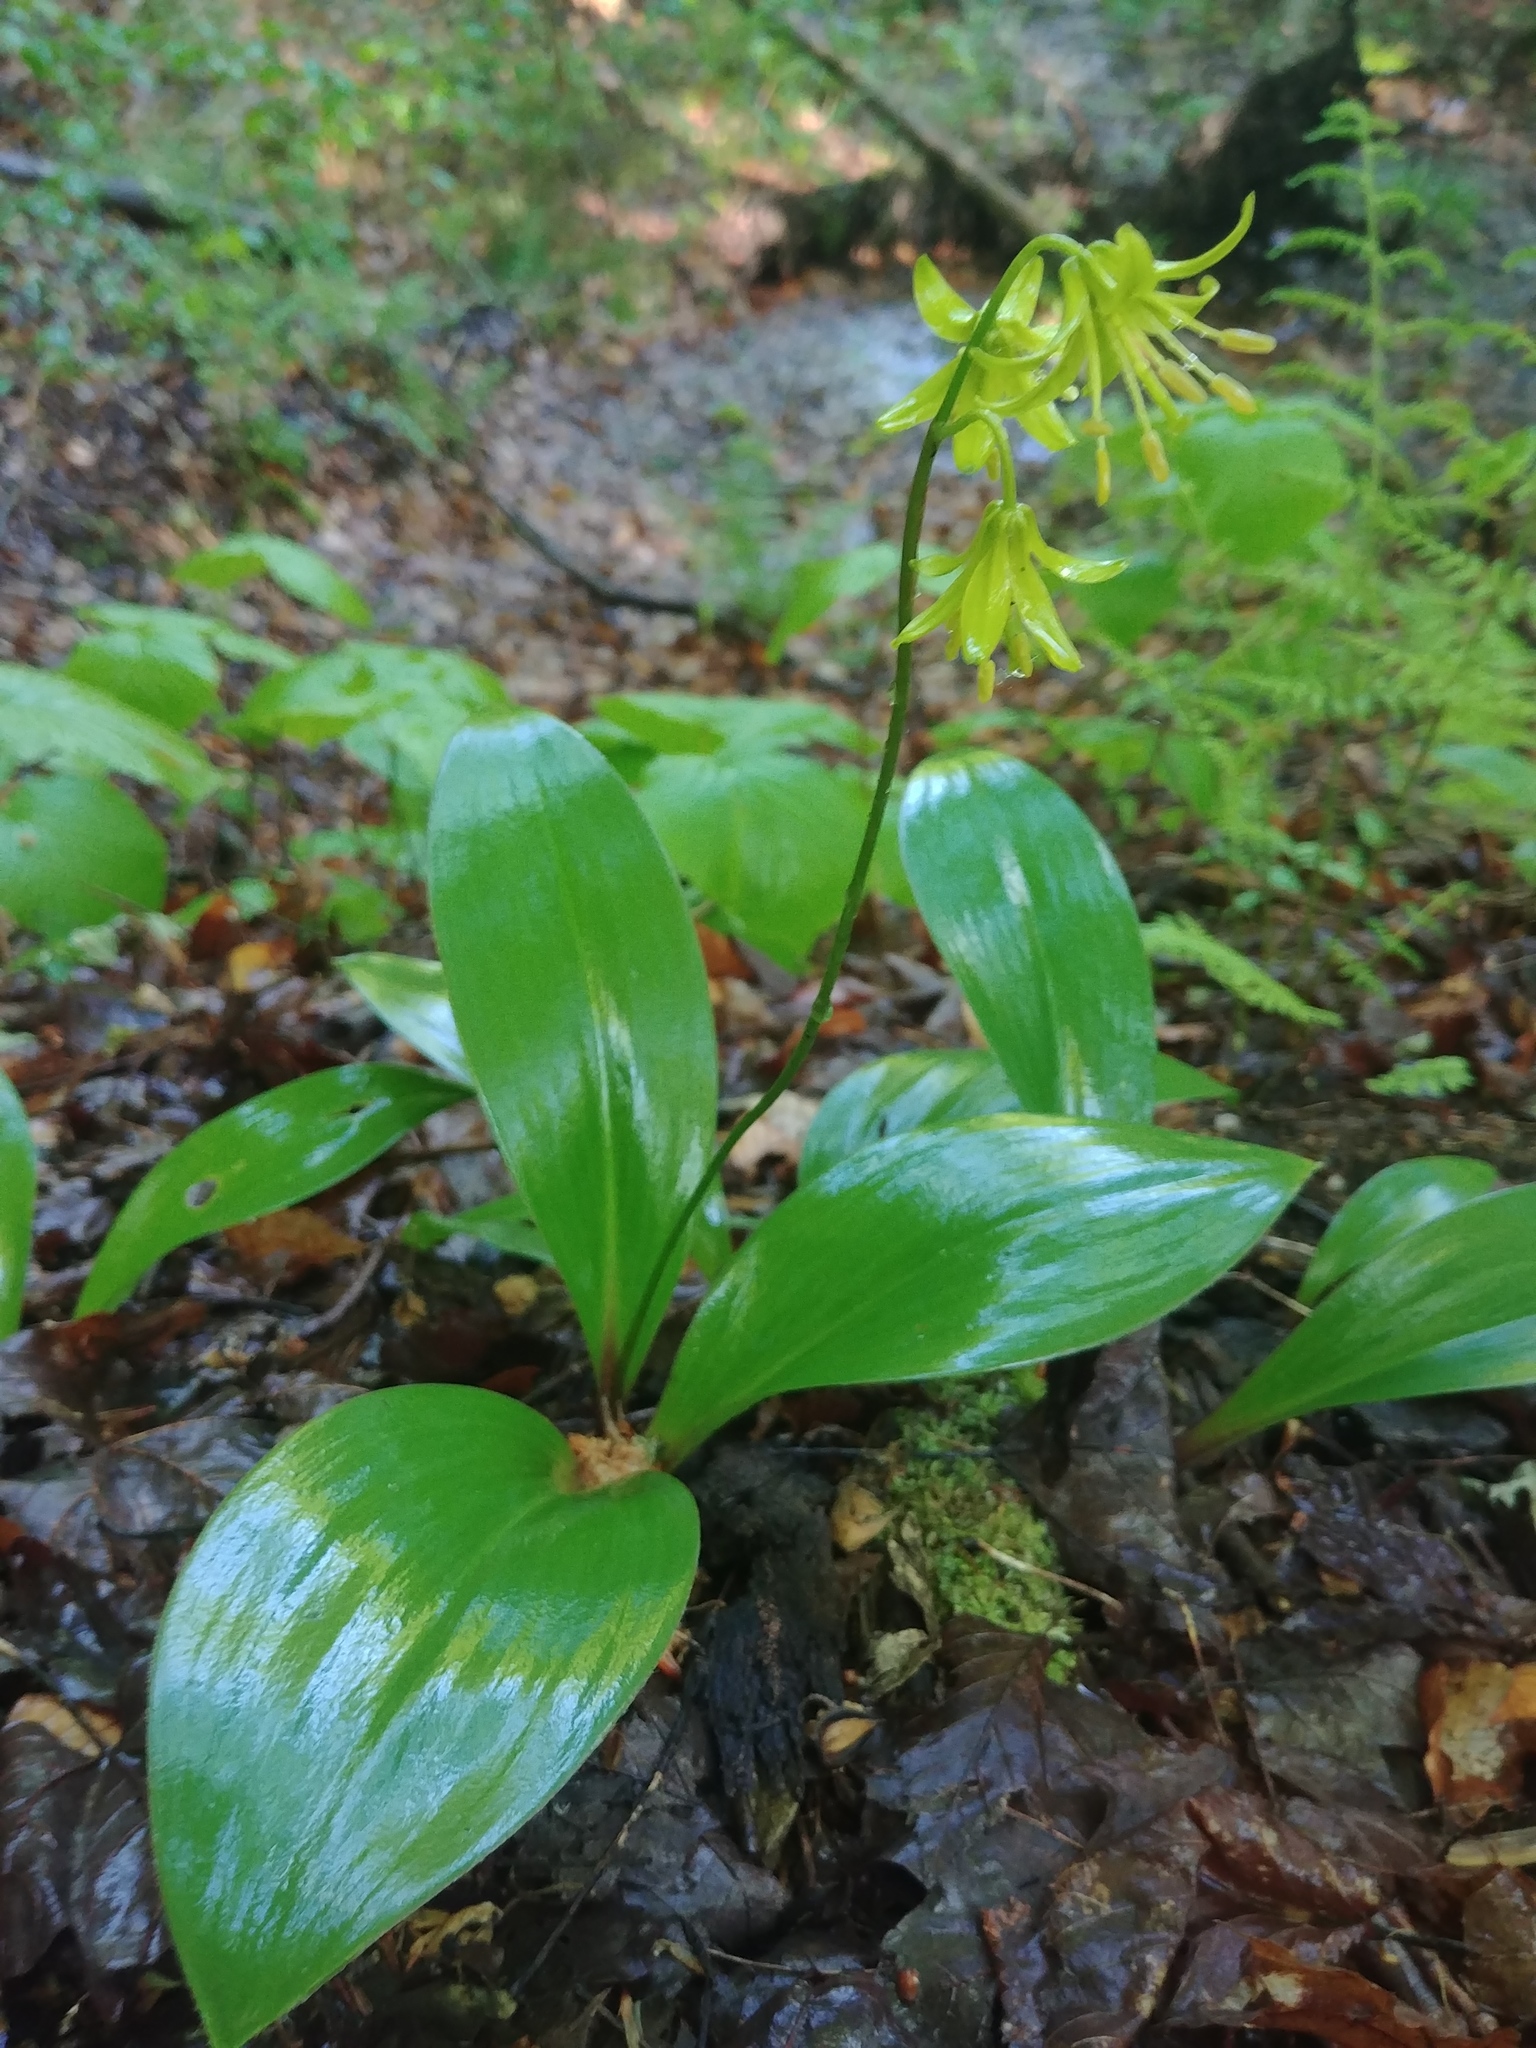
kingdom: Plantae
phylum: Tracheophyta
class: Liliopsida
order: Liliales
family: Liliaceae
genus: Clintonia
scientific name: Clintonia borealis
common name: Yellow clintonia
